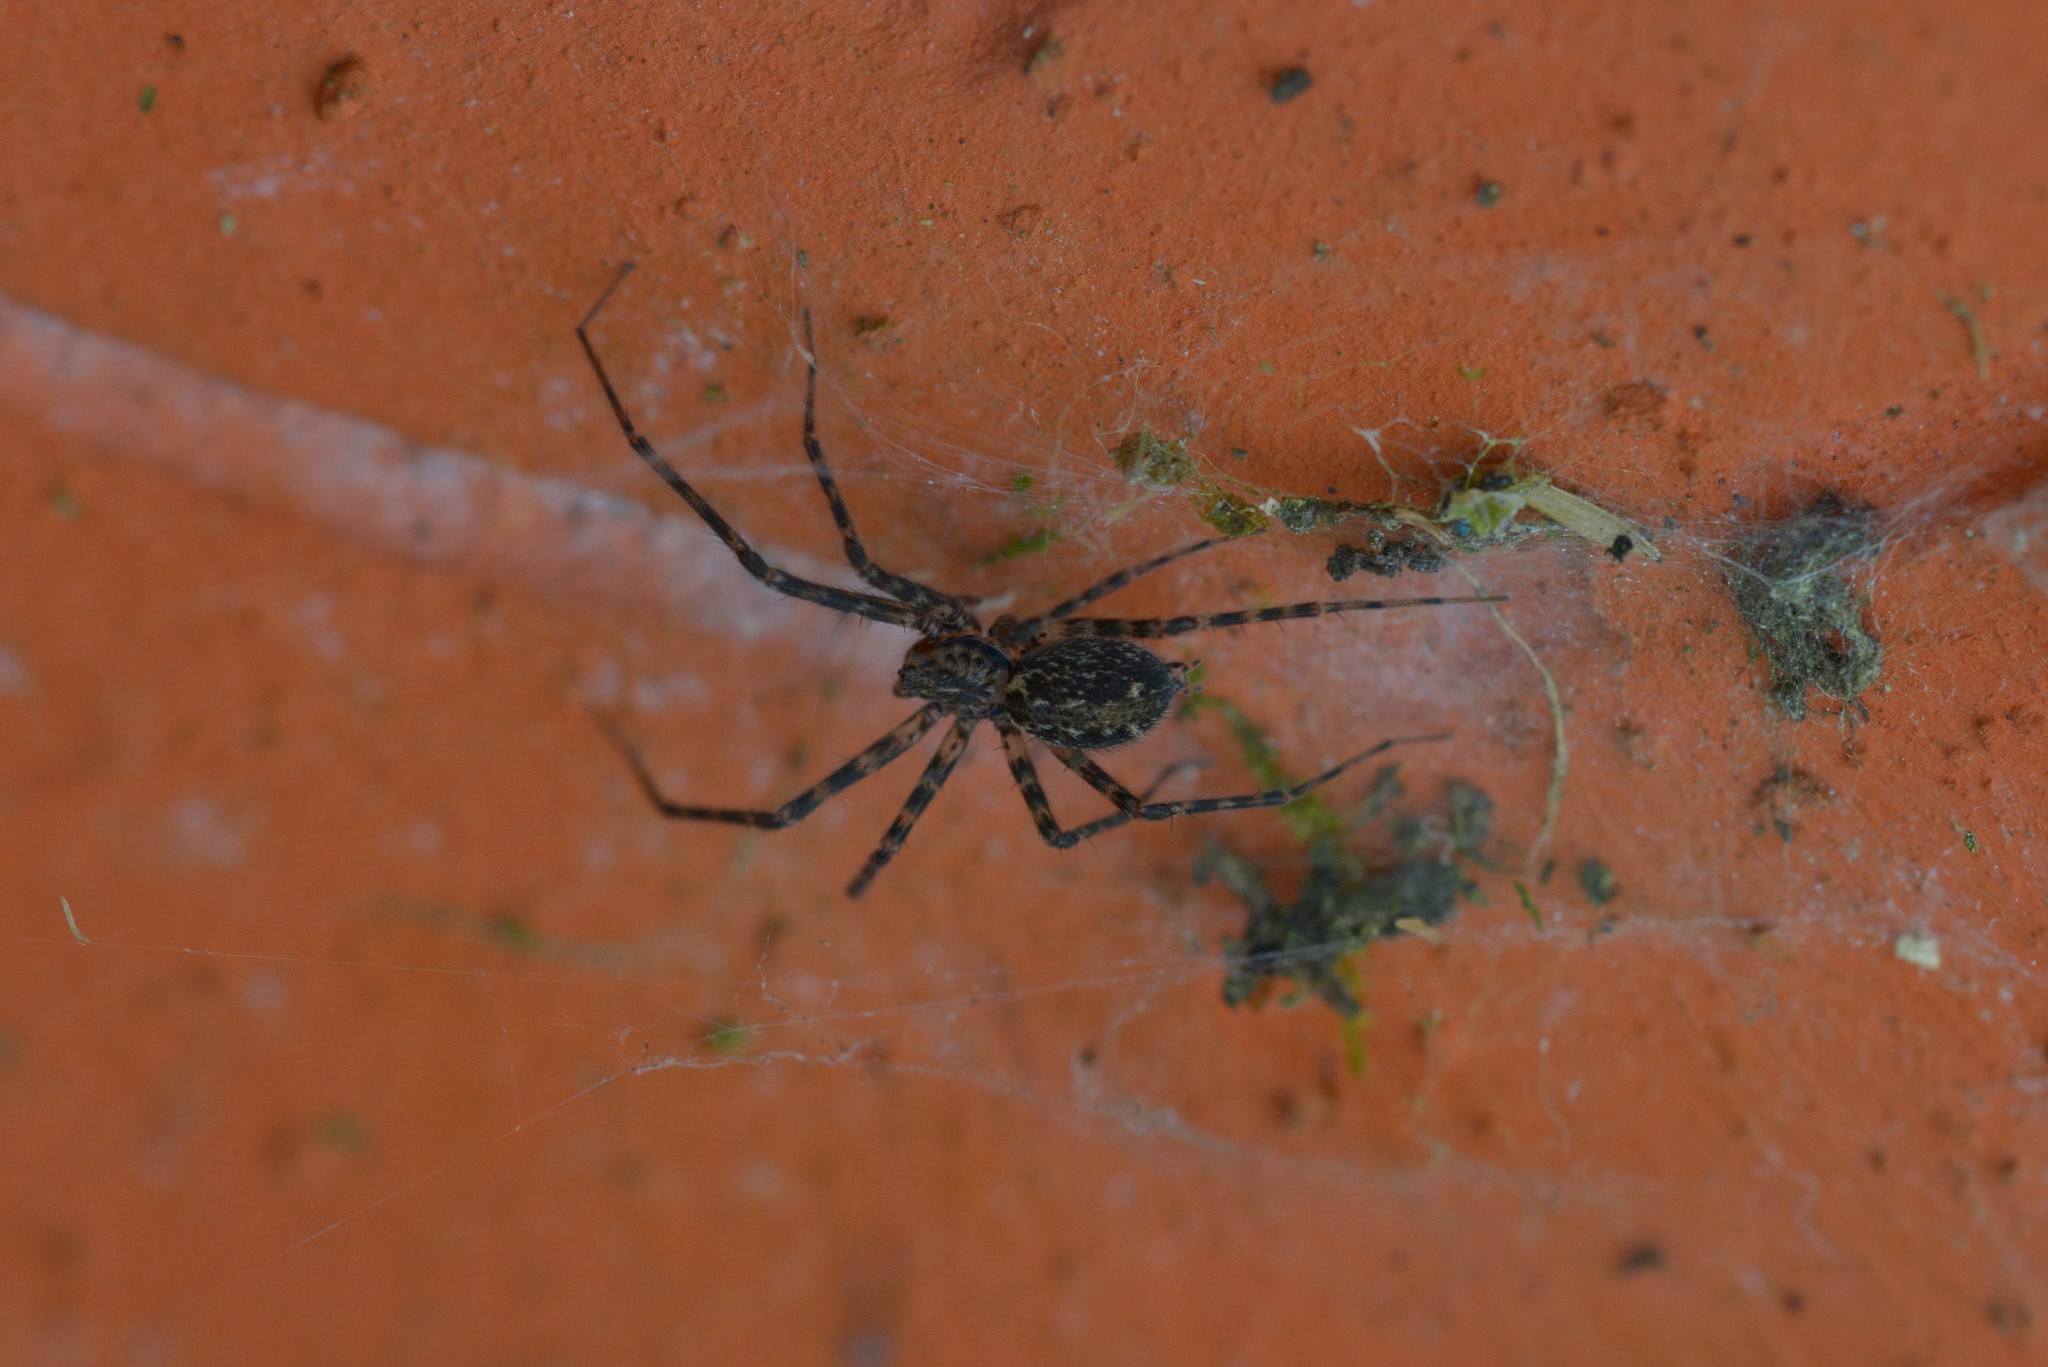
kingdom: Animalia
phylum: Arthropoda
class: Arachnida
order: Araneae
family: Stiphidiidae
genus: Stiphidion
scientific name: Stiphidion facetum
